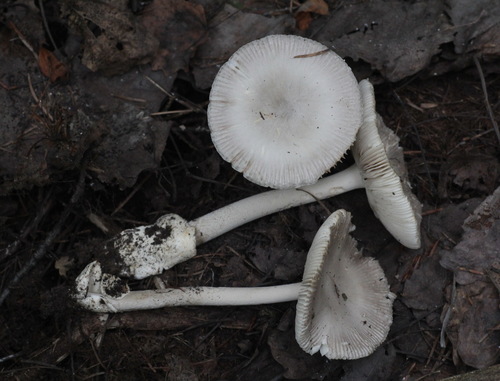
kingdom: Fungi
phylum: Basidiomycota
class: Agaricomycetes
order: Agaricales
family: Amanitaceae
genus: Amanita
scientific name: Amanita
